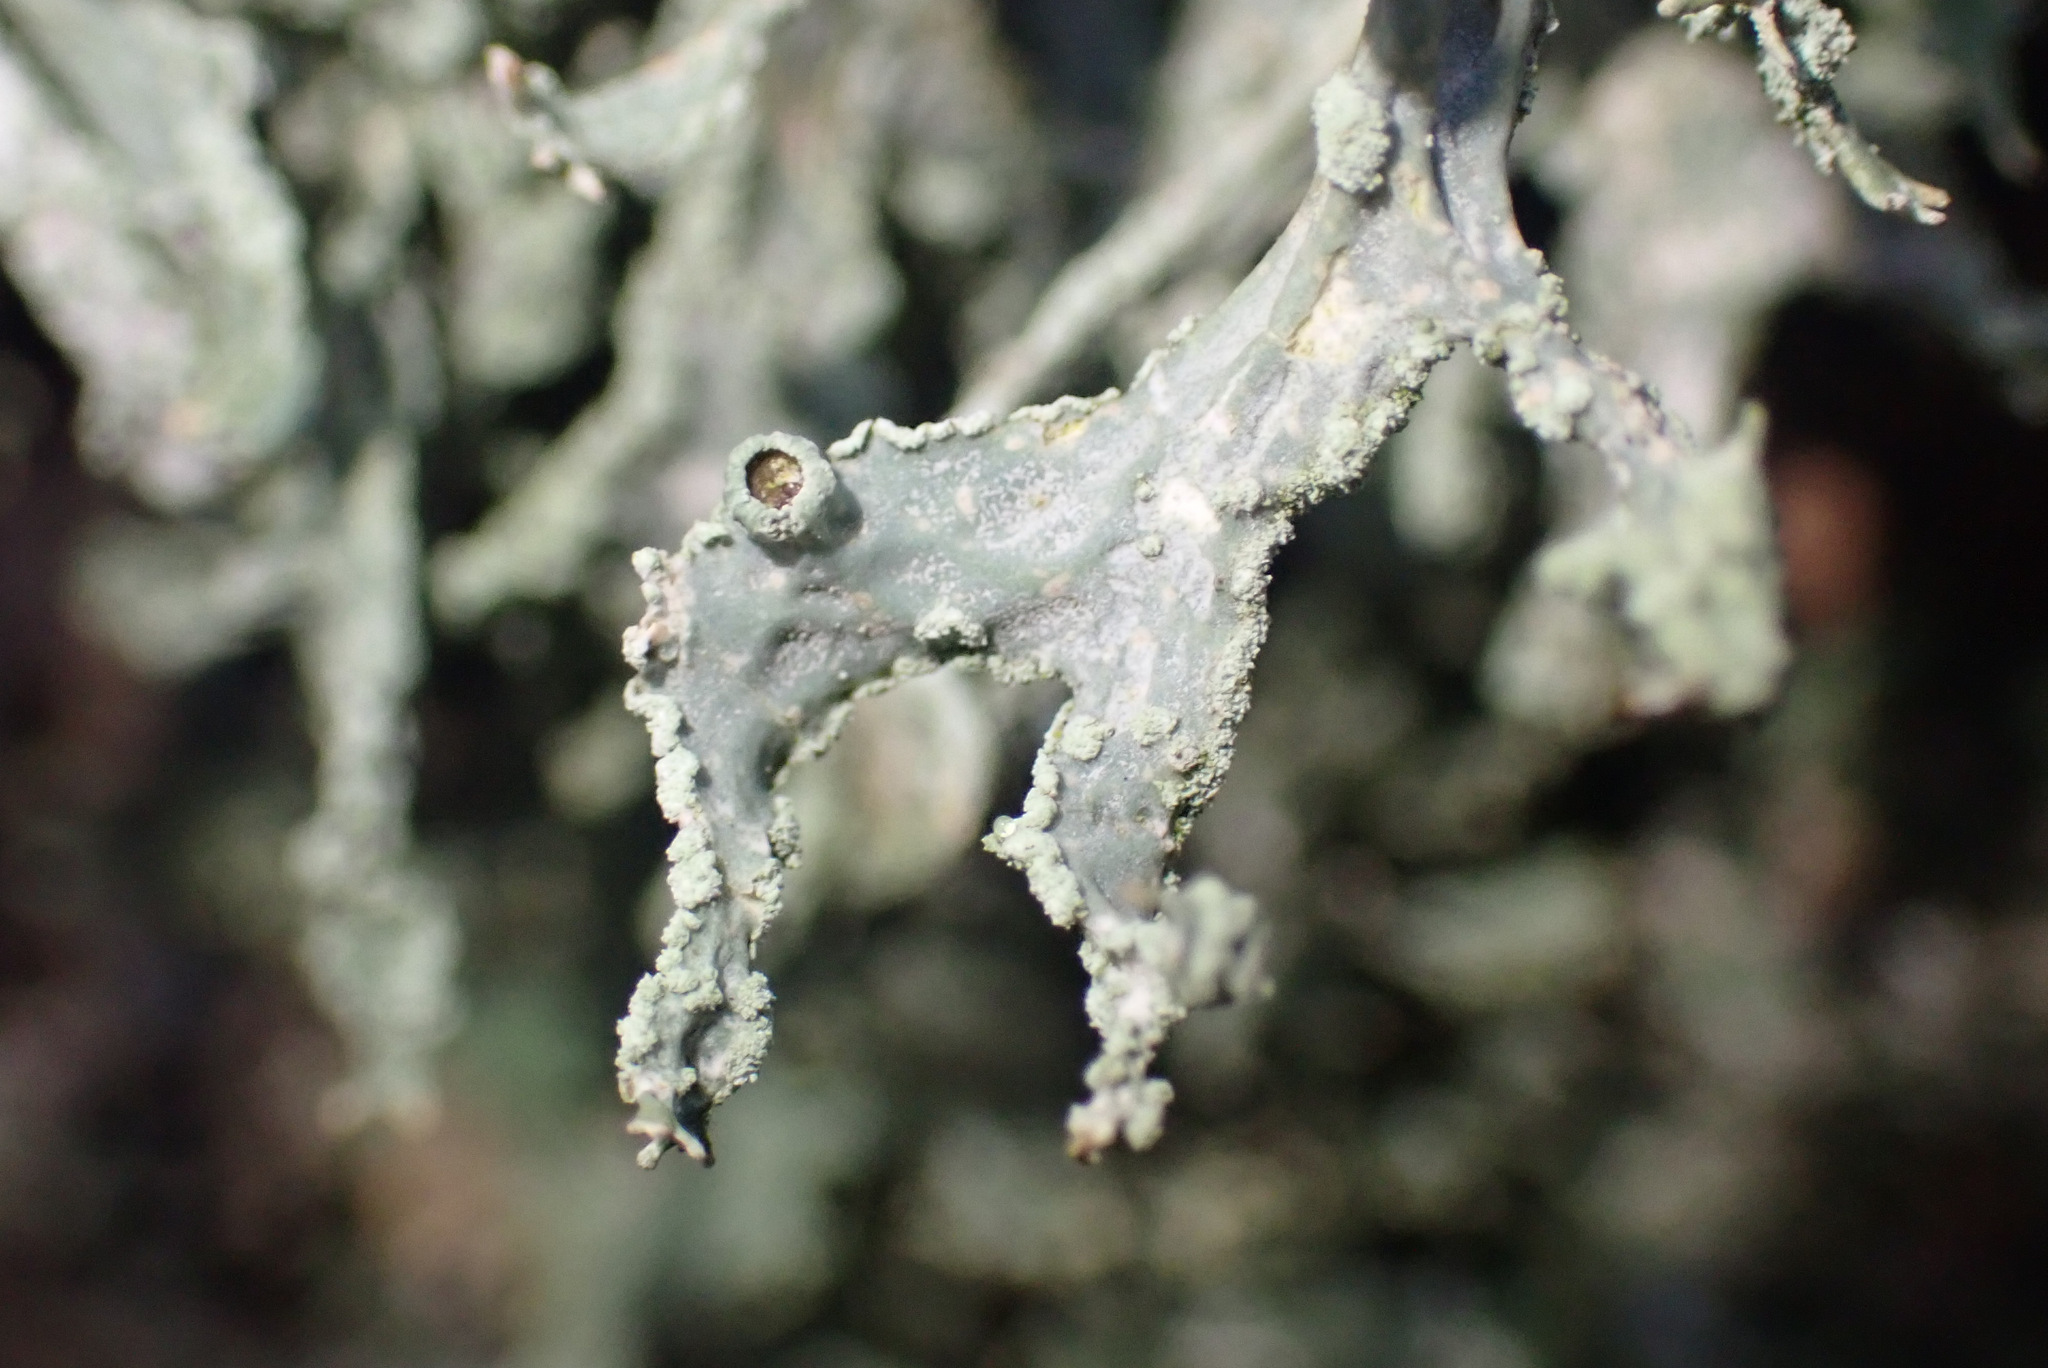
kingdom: Fungi
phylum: Ascomycota
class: Lecanoromycetes
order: Lecanorales
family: Parmeliaceae
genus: Evernia
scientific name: Evernia prunastri
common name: Oak moss
